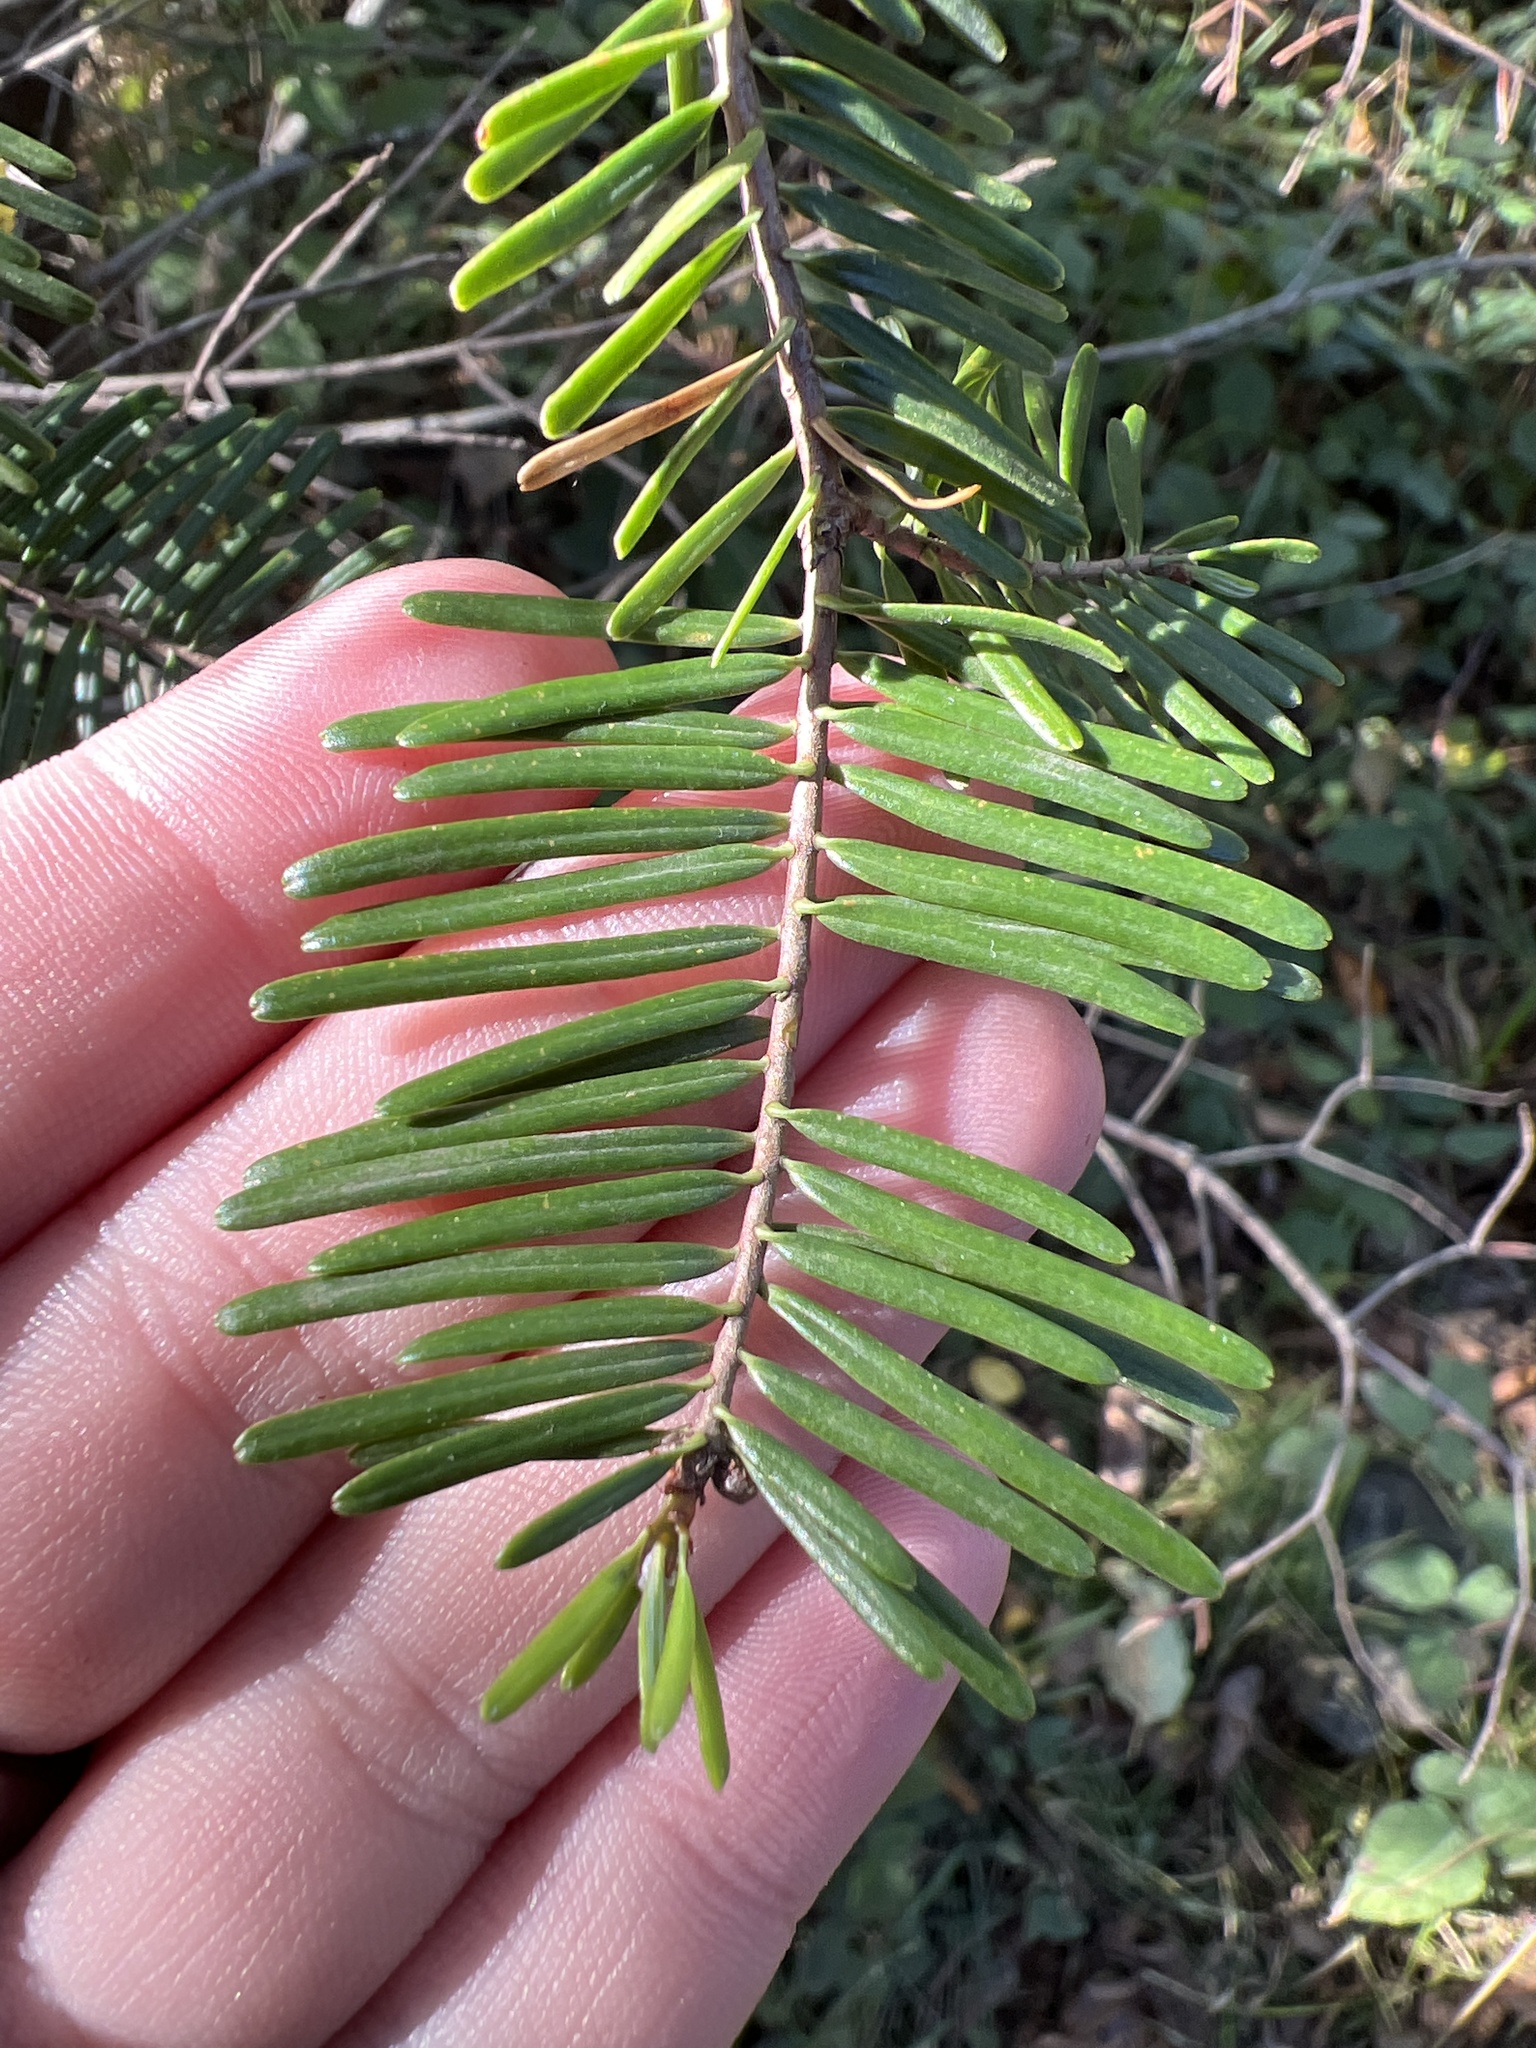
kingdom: Plantae
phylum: Tracheophyta
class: Pinopsida
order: Pinales
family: Pinaceae
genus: Abies
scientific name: Abies grandis
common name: Giant fir
